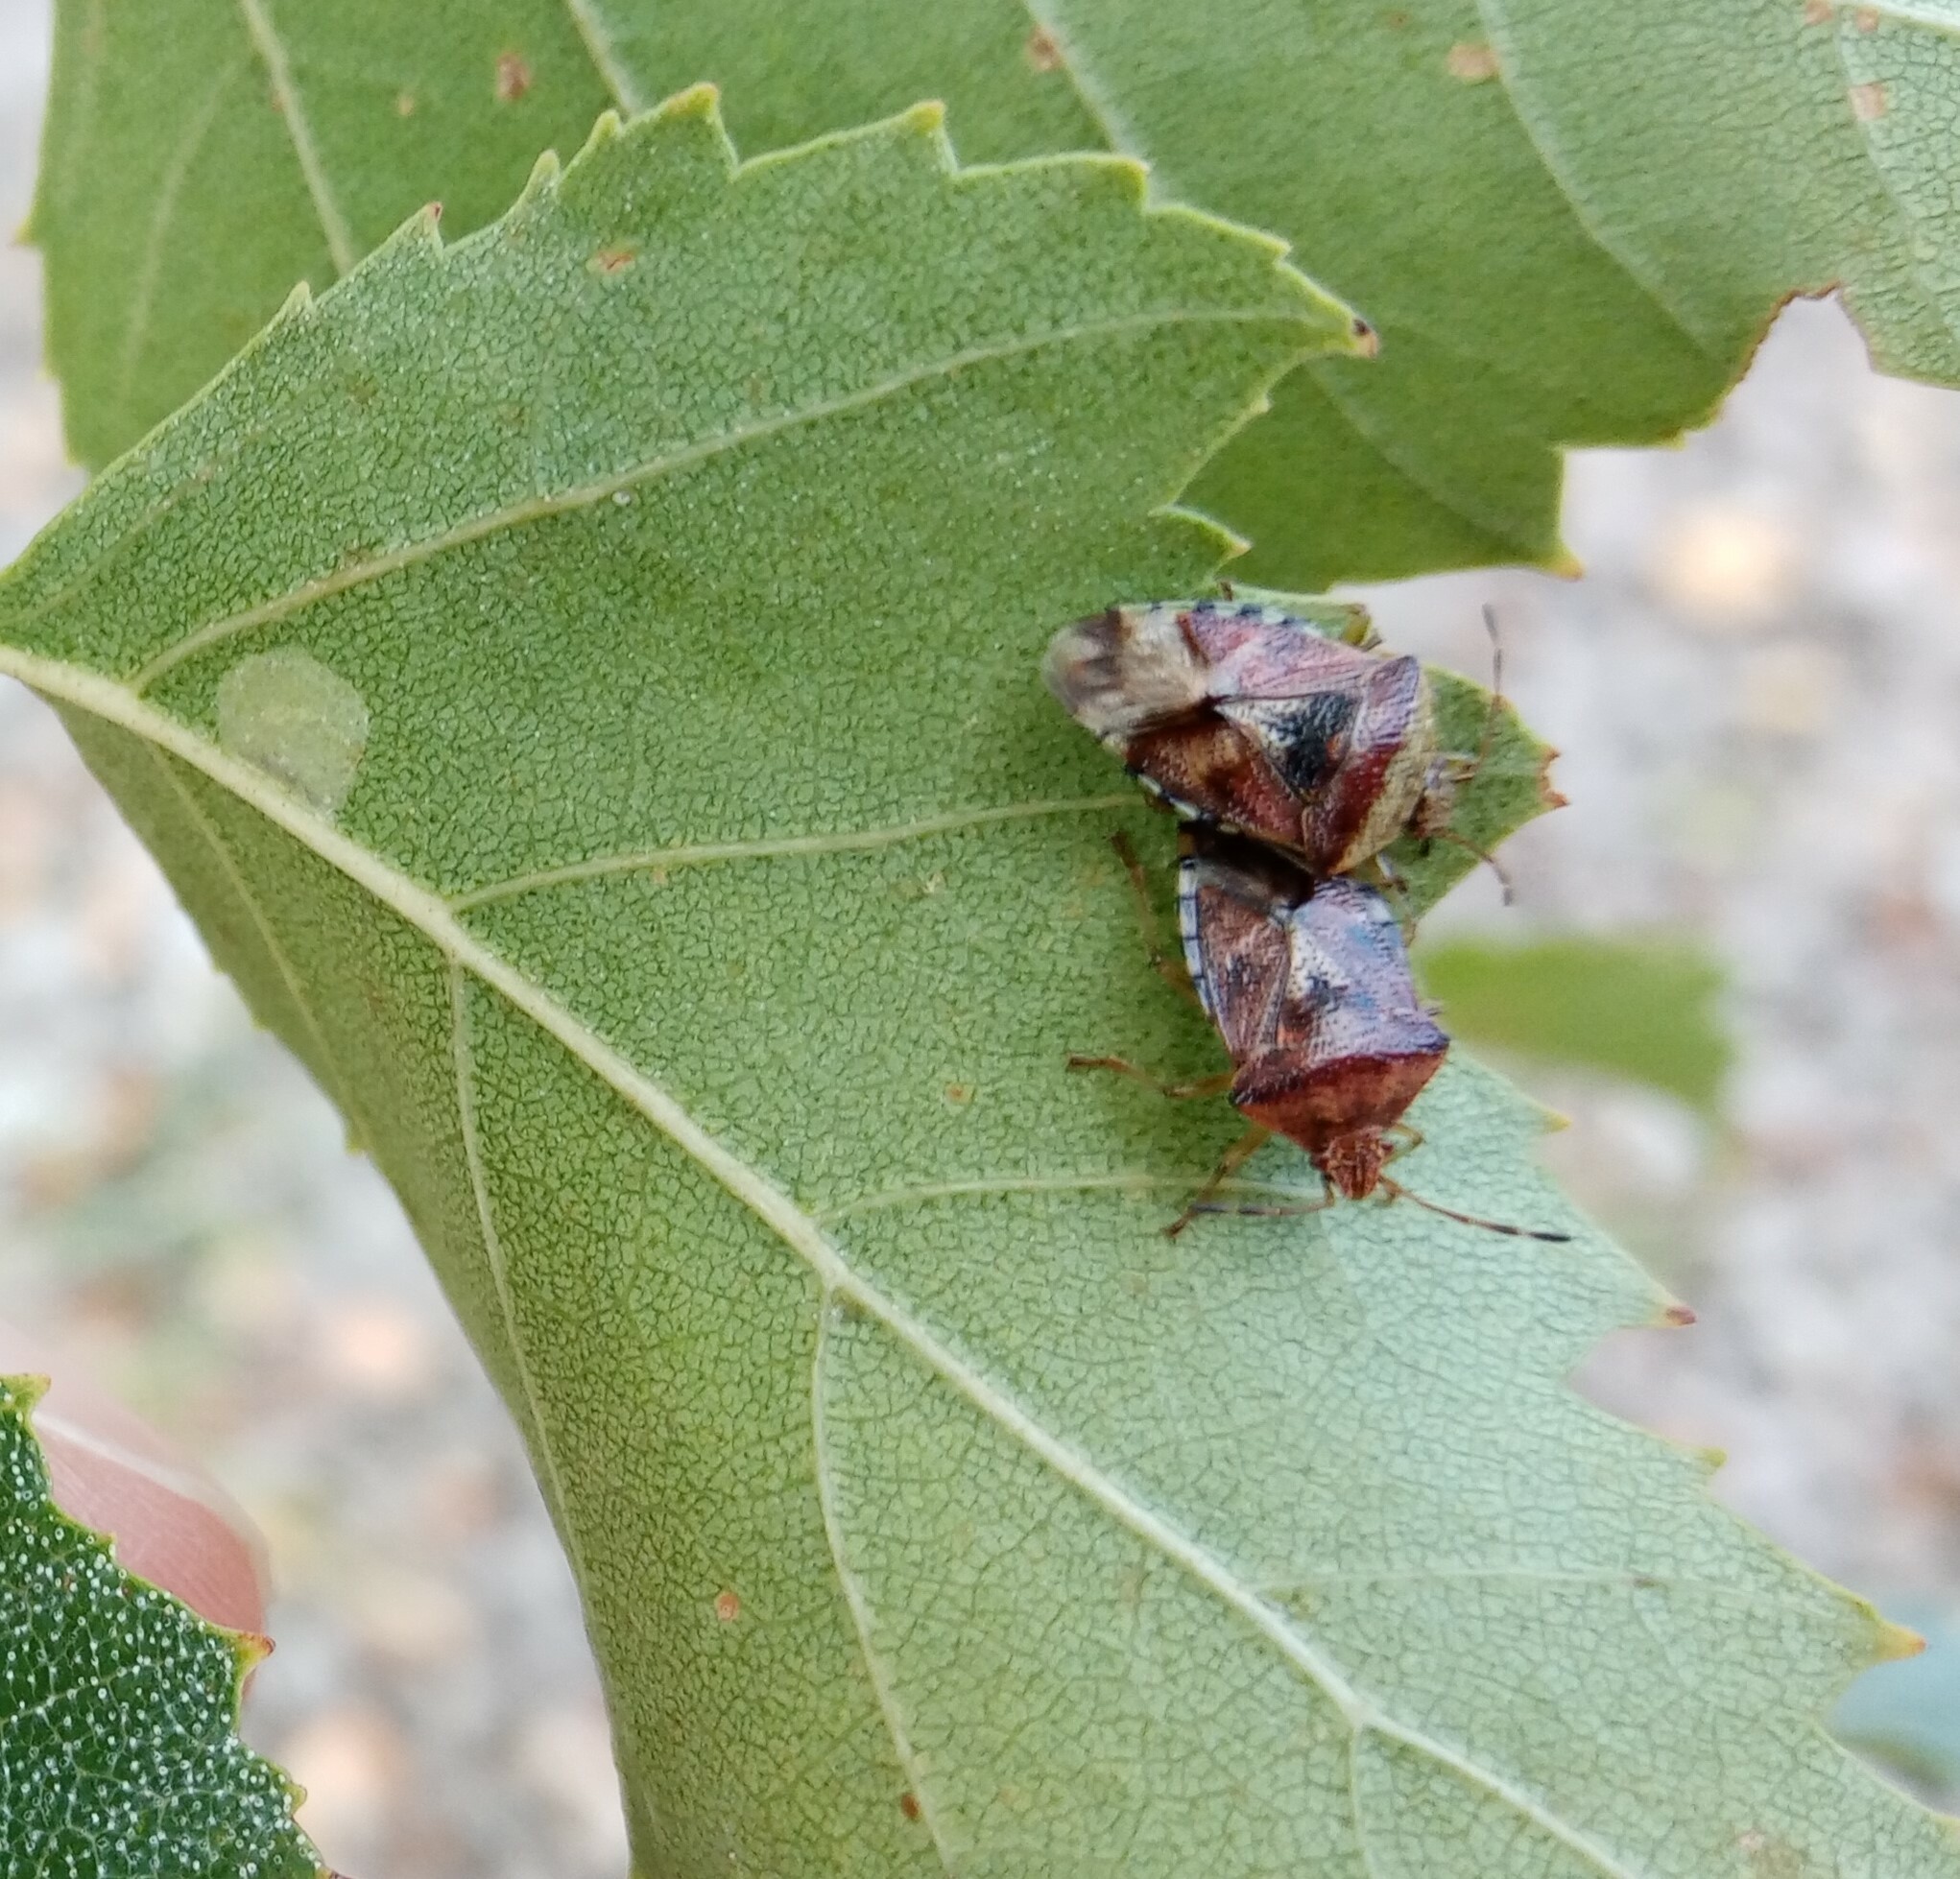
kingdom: Animalia
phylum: Arthropoda
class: Insecta
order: Hemiptera
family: Acanthosomatidae
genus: Elasmucha
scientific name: Elasmucha grisea
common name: Parent bug
